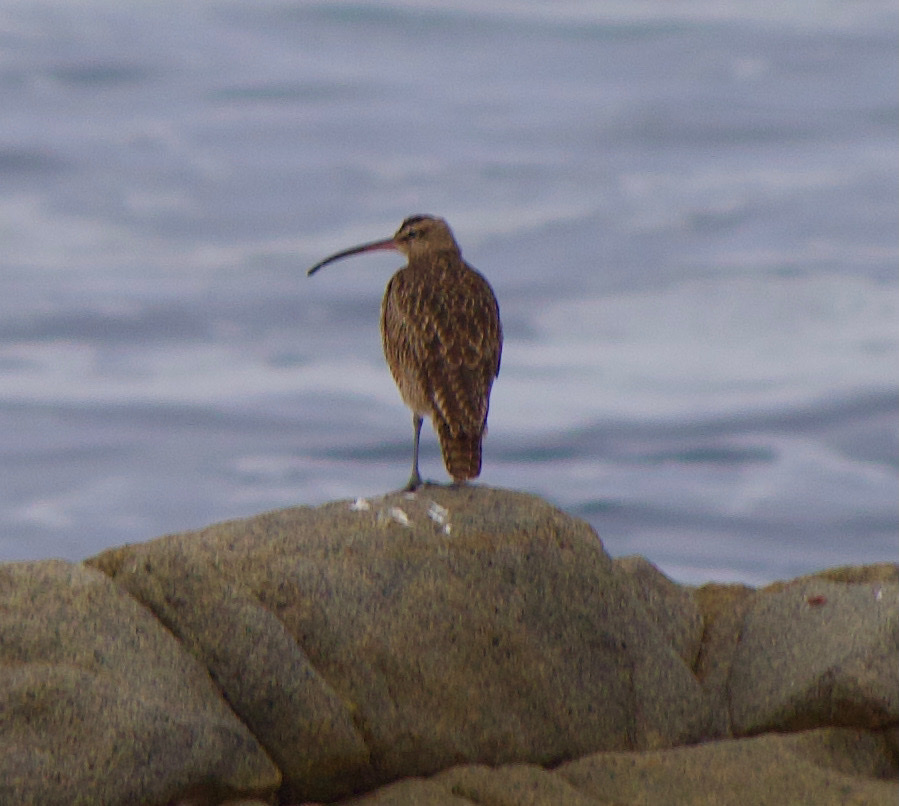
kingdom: Animalia
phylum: Chordata
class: Aves
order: Charadriiformes
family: Scolopacidae
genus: Numenius
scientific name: Numenius phaeopus
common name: Whimbrel
